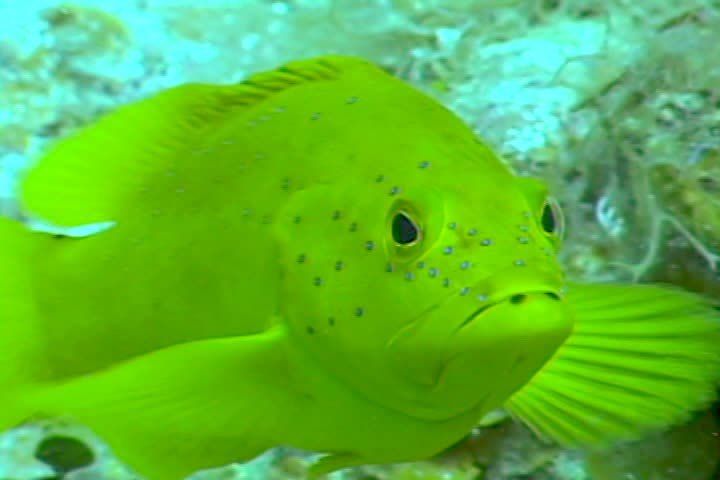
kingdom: Animalia
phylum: Chordata
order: Perciformes
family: Serranidae
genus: Cephalopholis
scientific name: Cephalopholis fulva
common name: Butterfish
